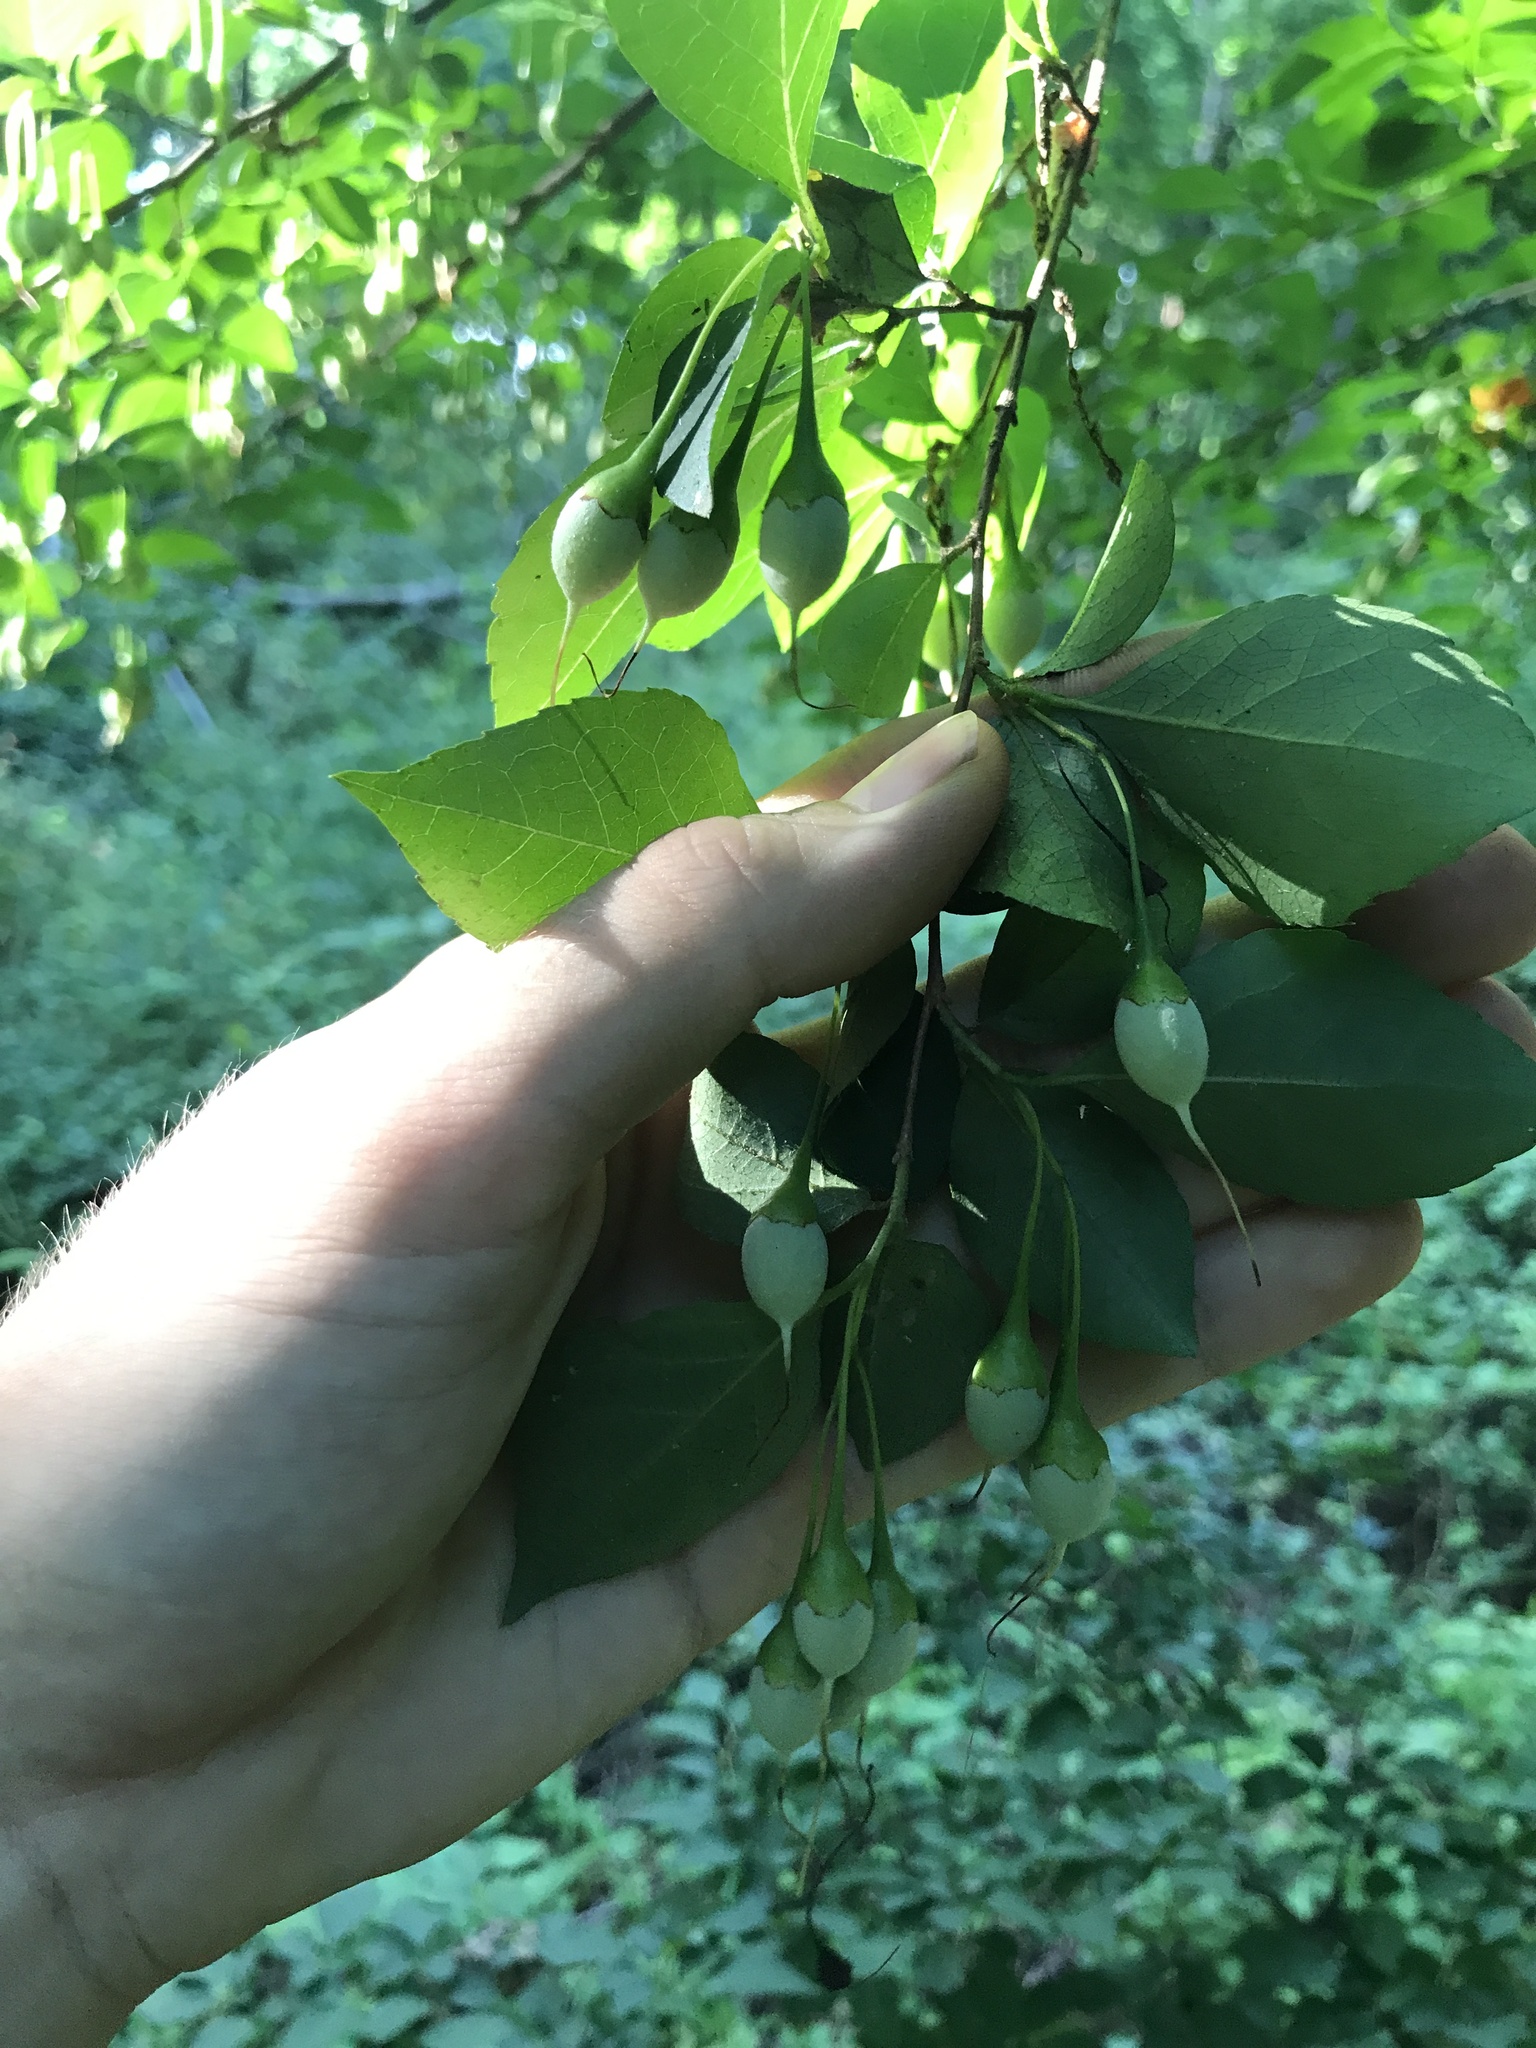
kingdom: Plantae
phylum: Tracheophyta
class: Magnoliopsida
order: Ericales
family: Styracaceae
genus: Styrax
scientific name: Styrax japonicus
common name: Japanese snowbell
